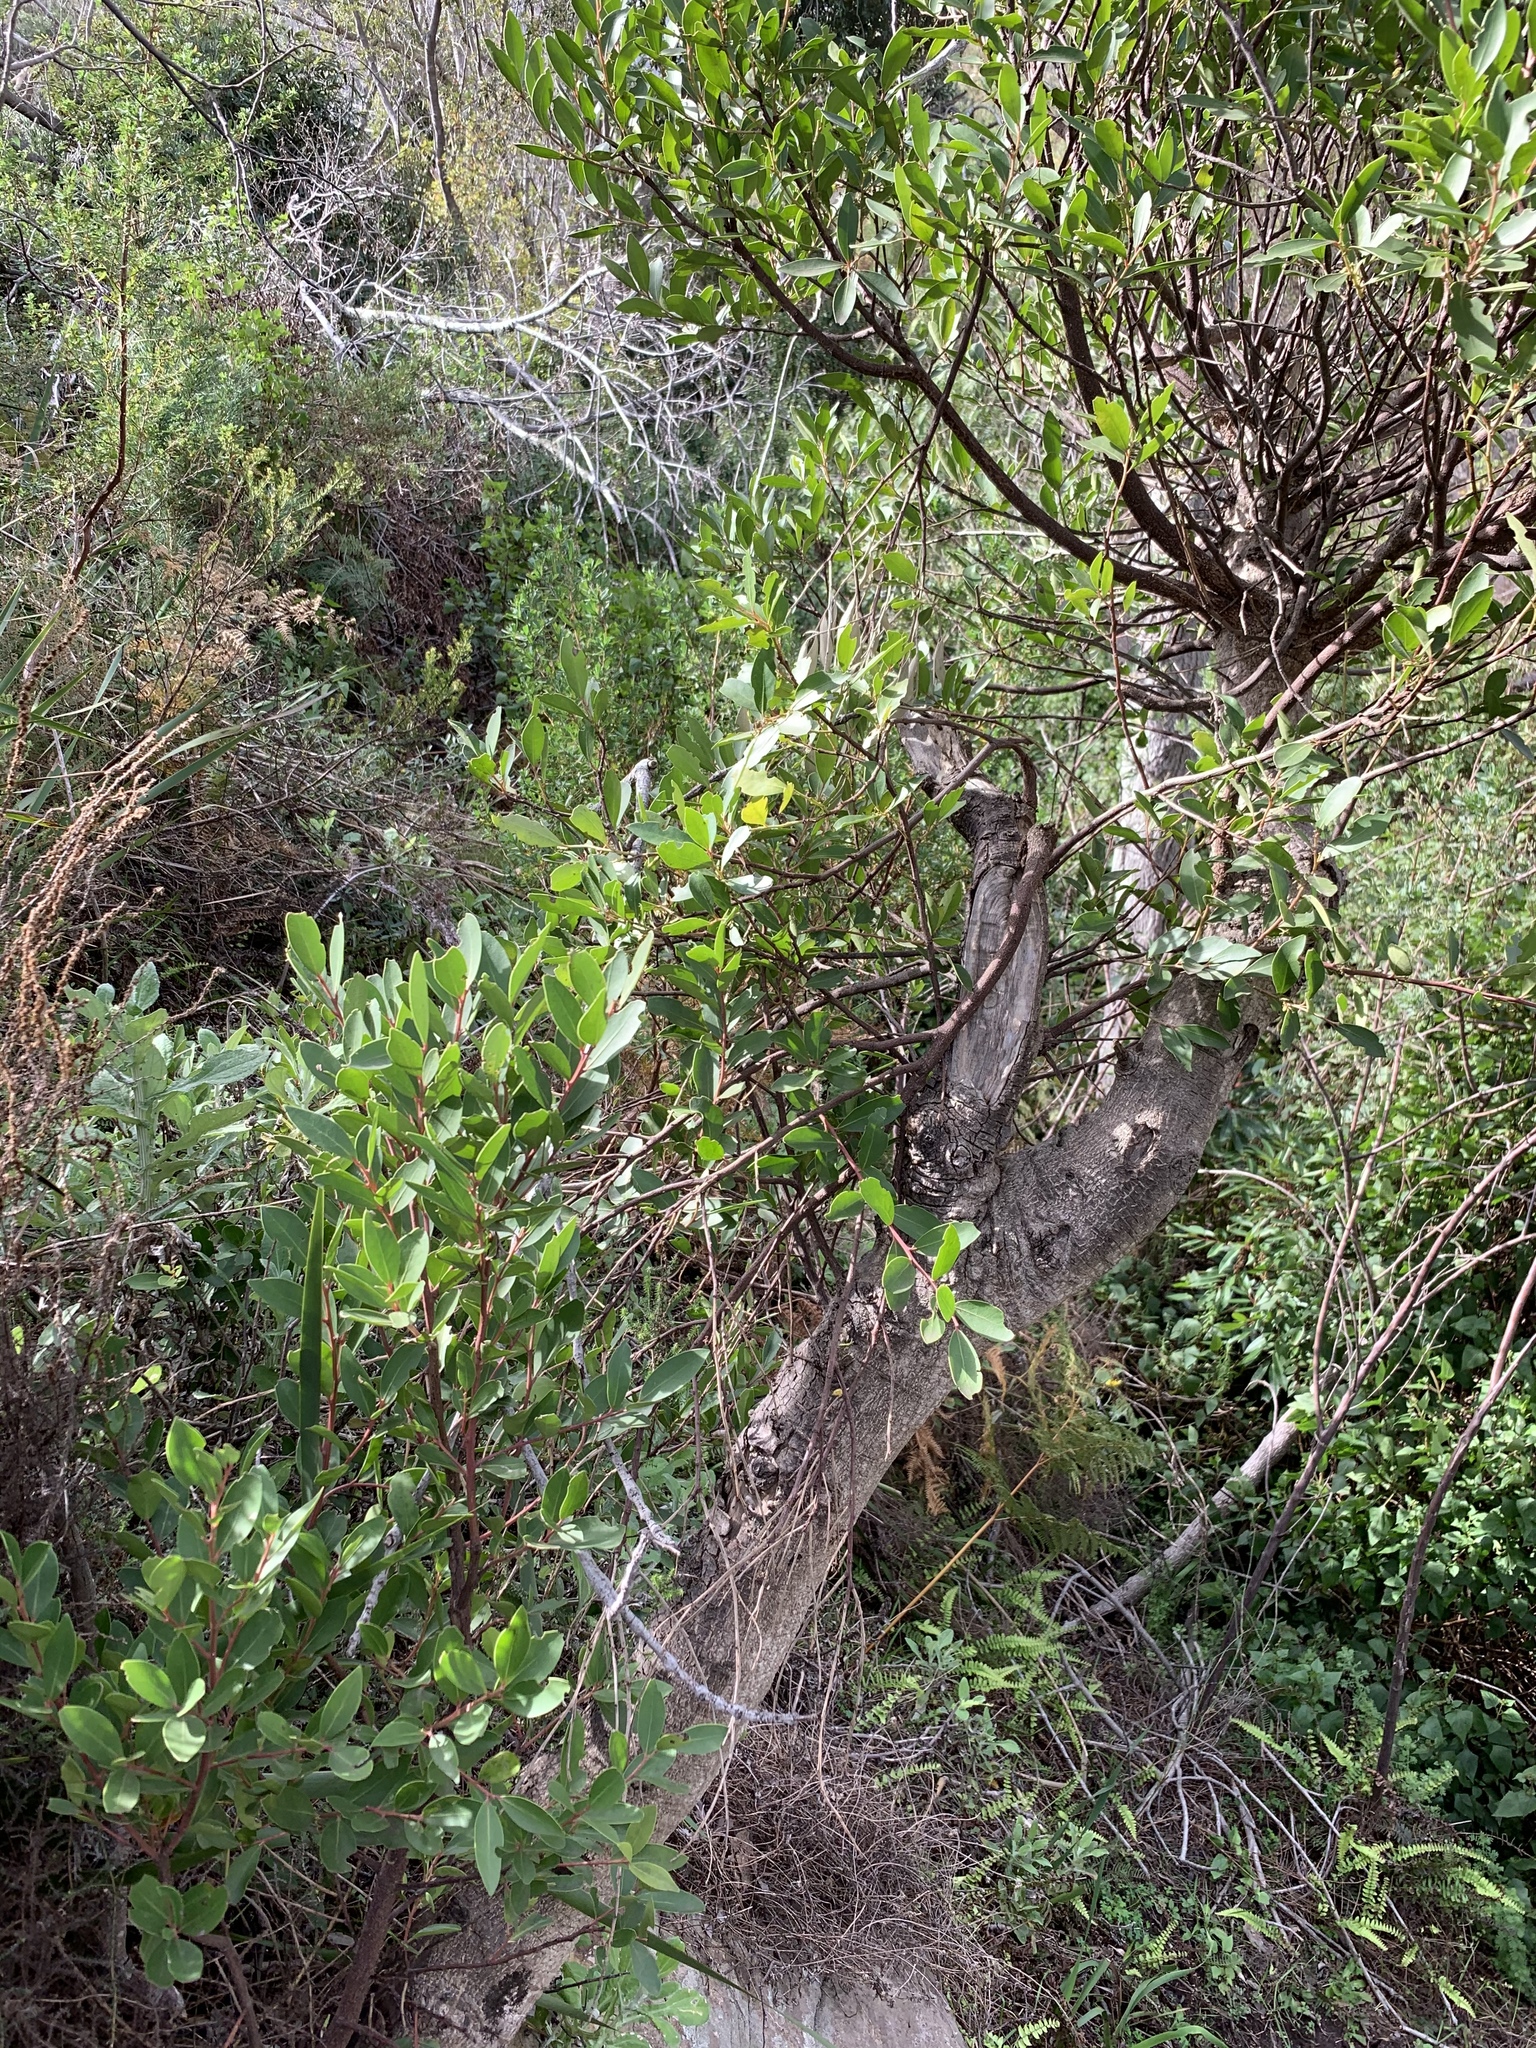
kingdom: Plantae
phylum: Tracheophyta
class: Magnoliopsida
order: Celastrales
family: Celastraceae
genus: Gymnosporia
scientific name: Gymnosporia laurina
